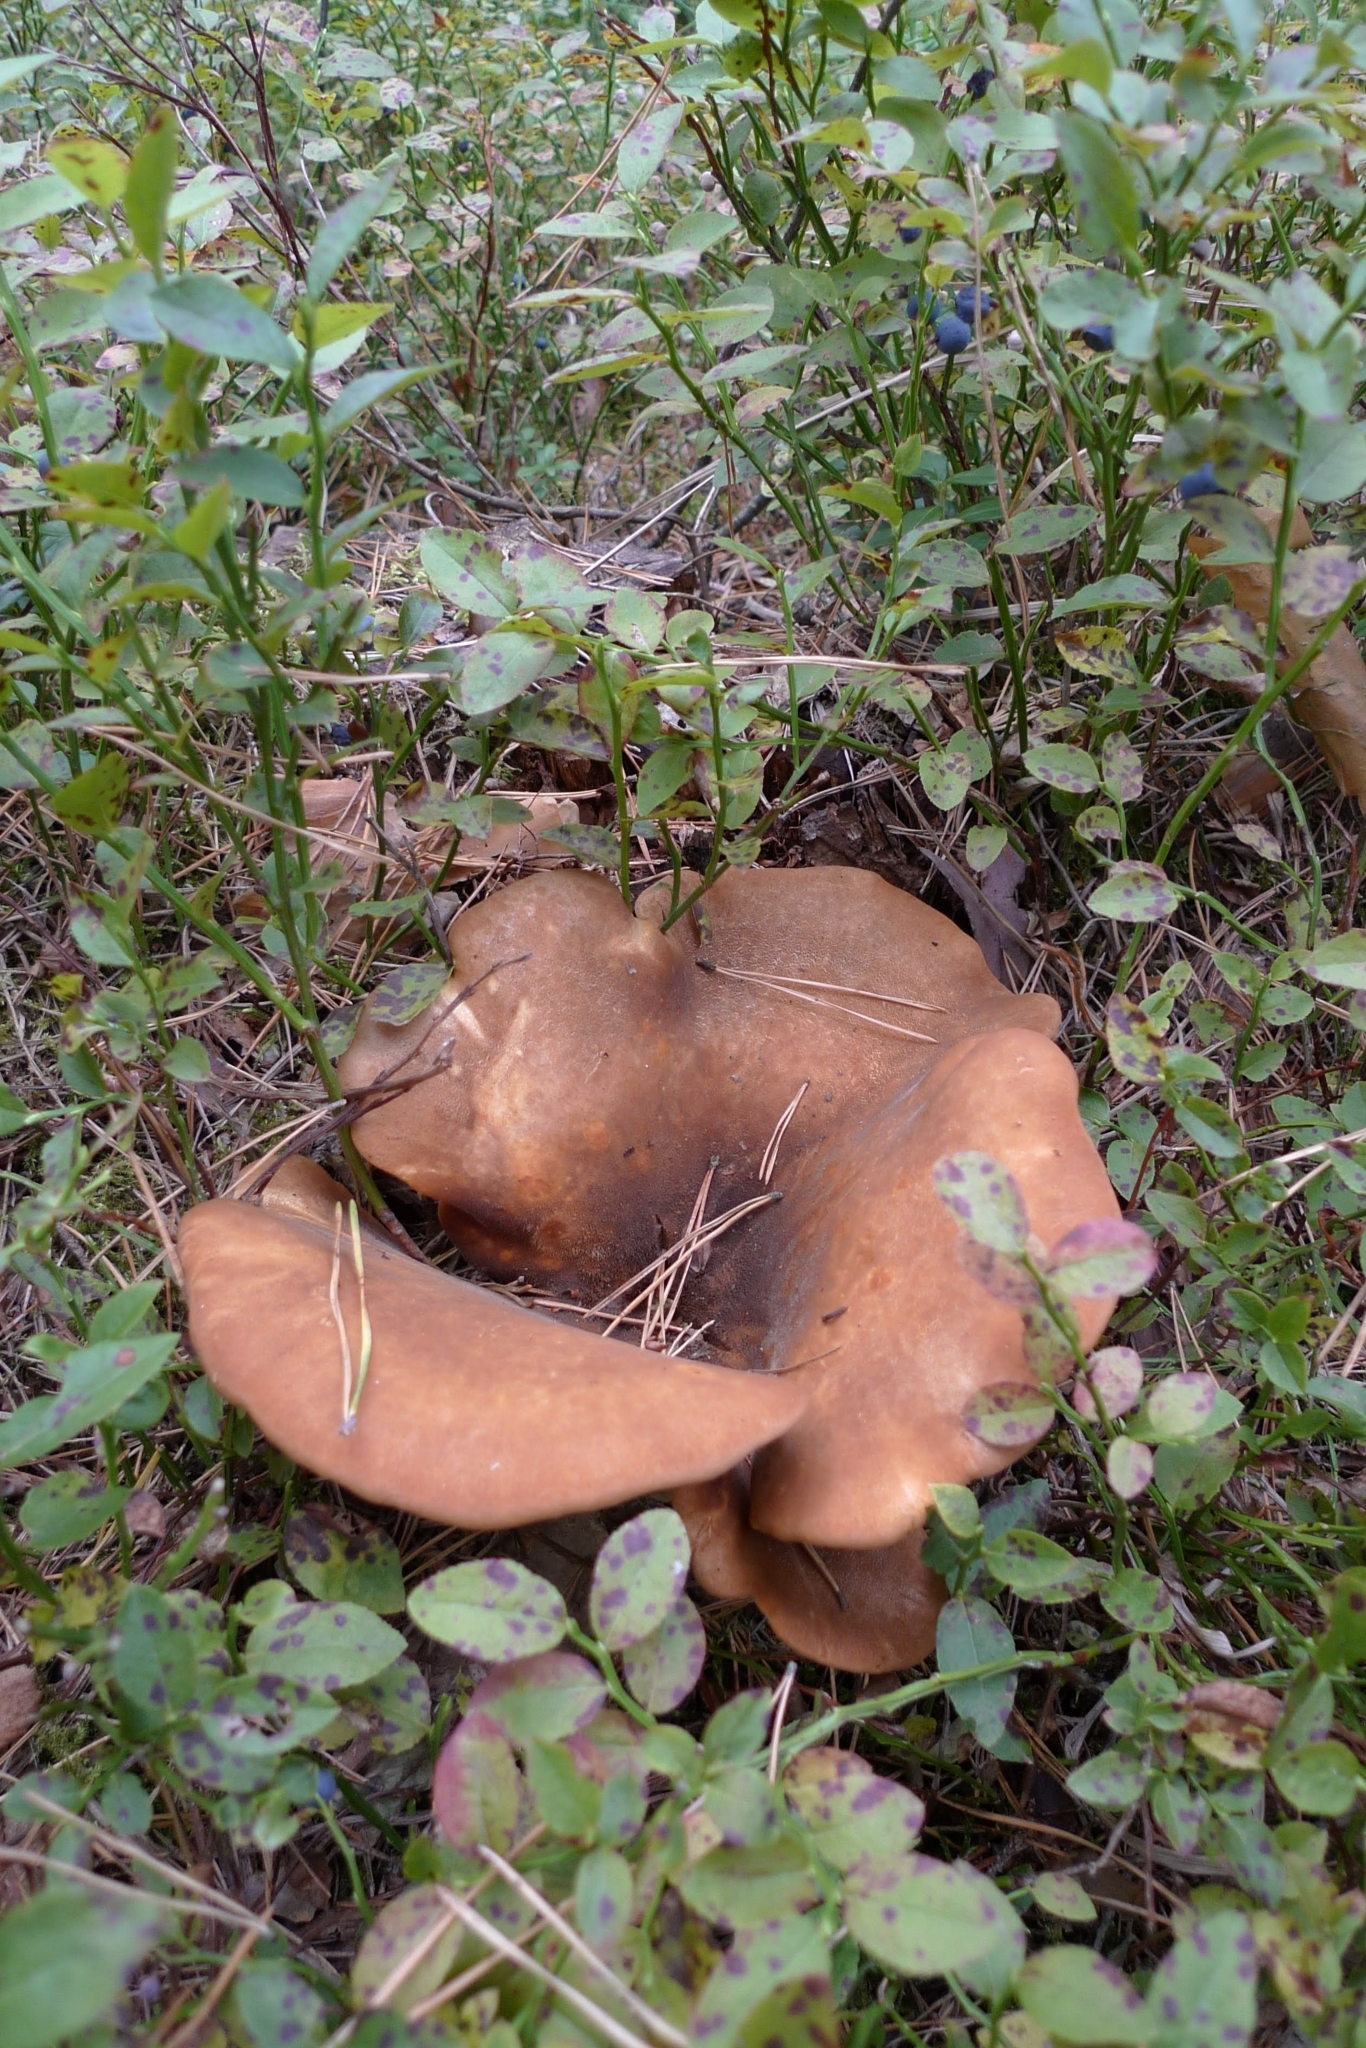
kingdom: Fungi
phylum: Basidiomycota
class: Agaricomycetes
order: Boletales
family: Tapinellaceae
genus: Tapinella
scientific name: Tapinella atrotomentosa
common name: Velvet rollrim
